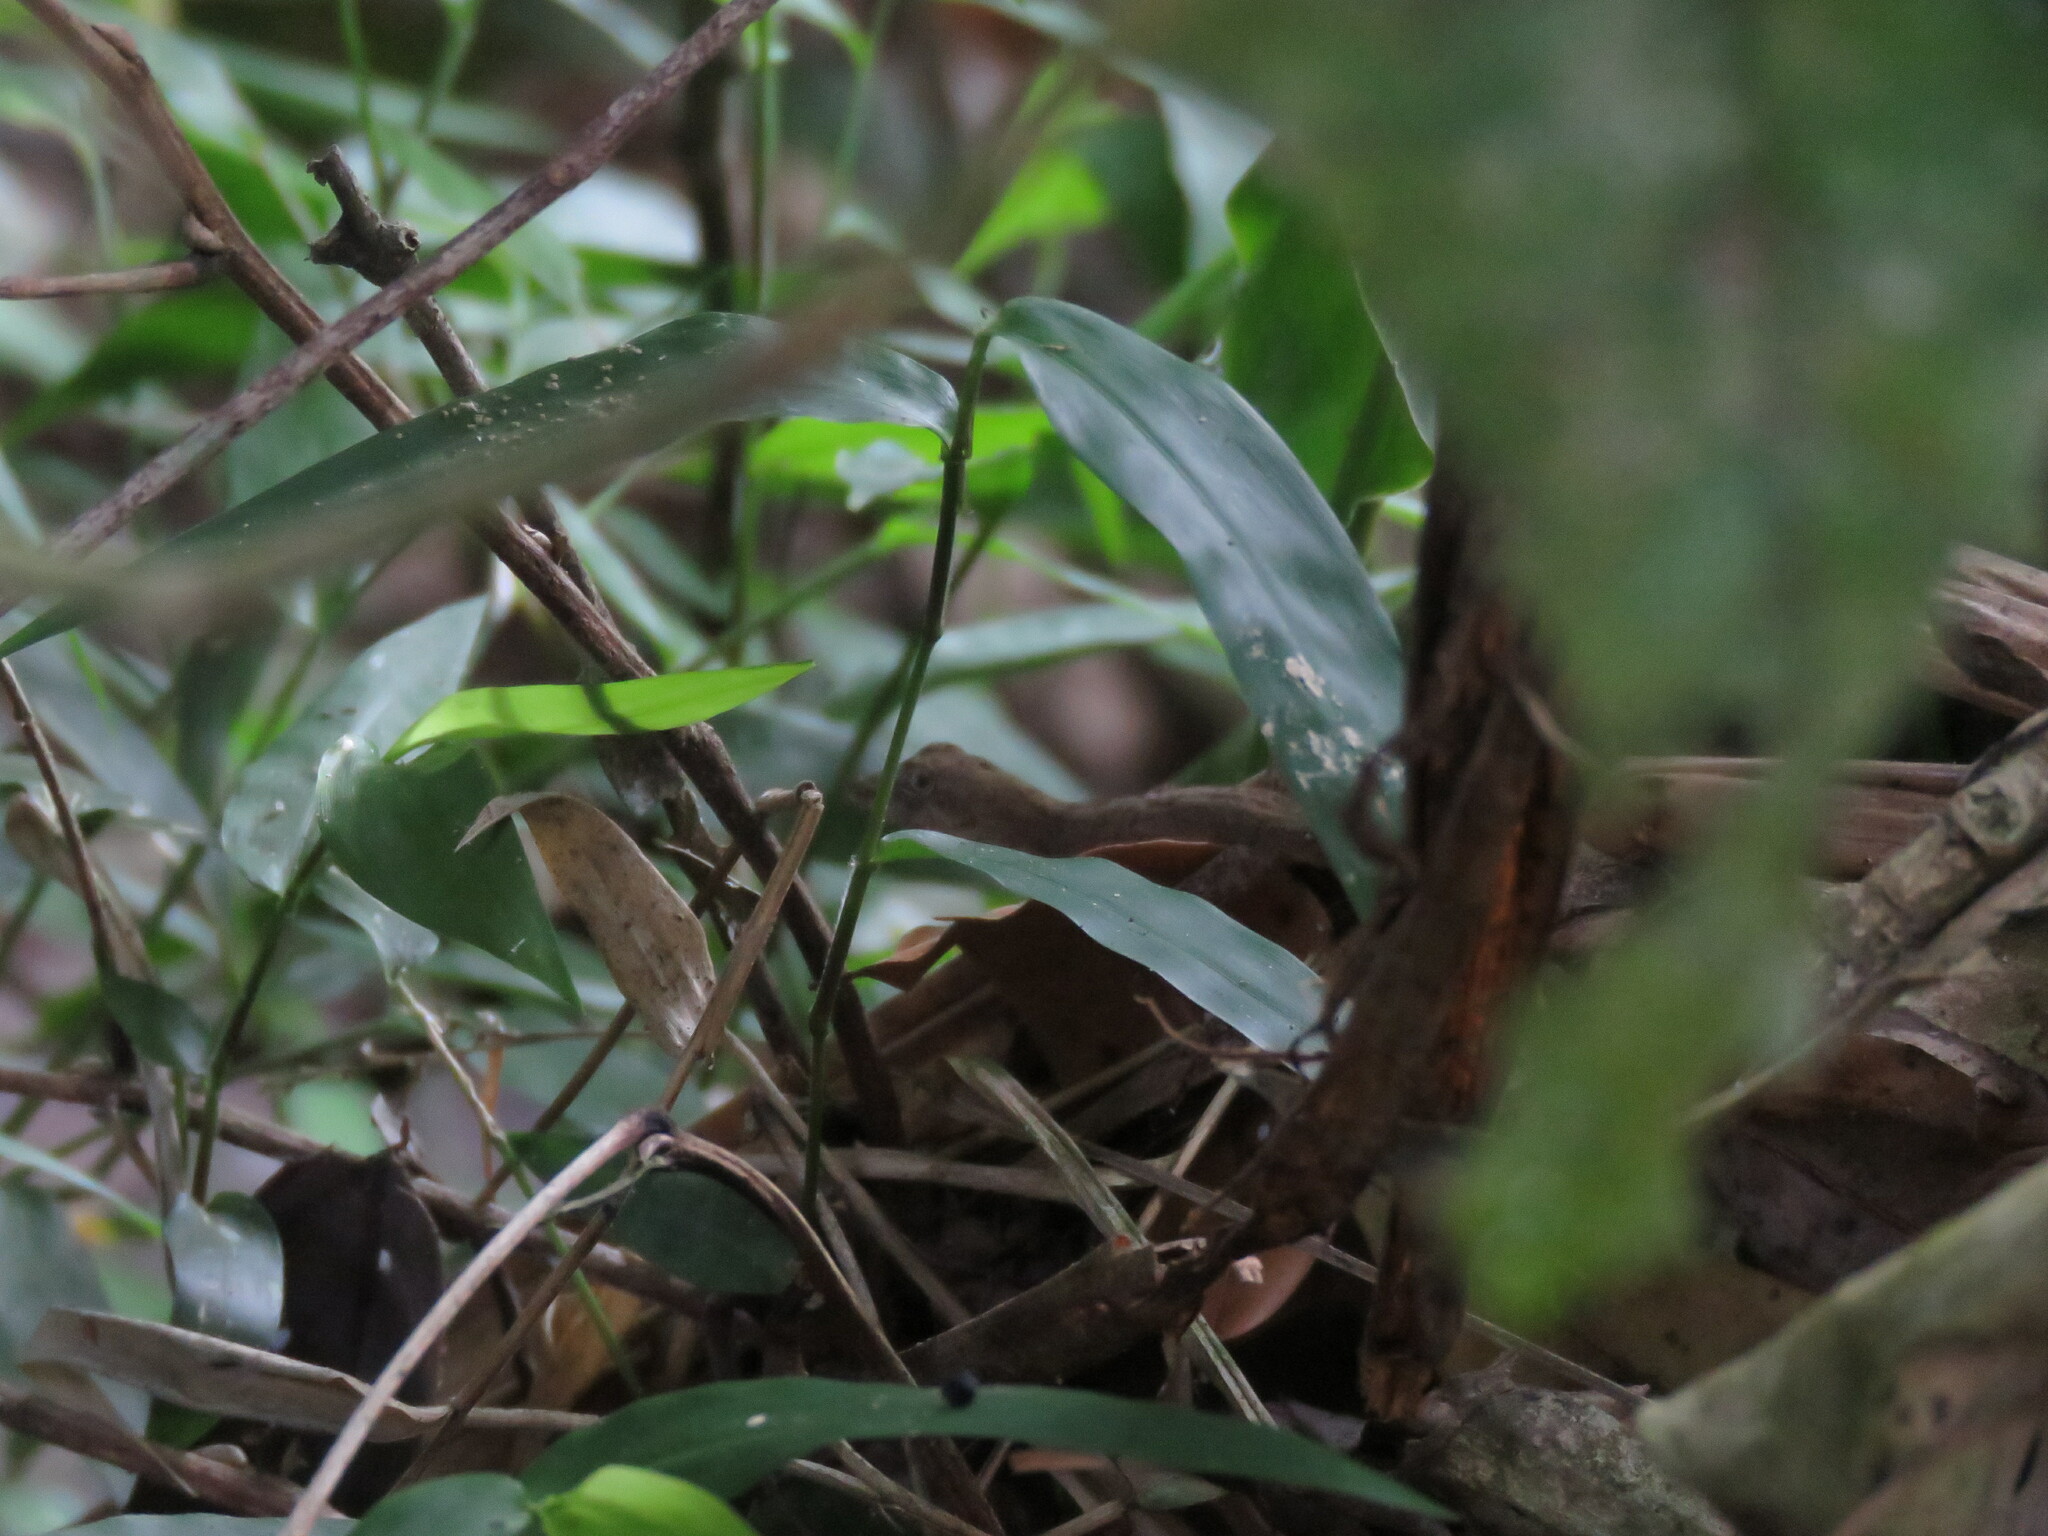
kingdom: Animalia
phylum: Chordata
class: Squamata
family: Dactyloidae
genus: Anolis
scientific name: Anolis fuscoauratus
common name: Brown-eared anole
